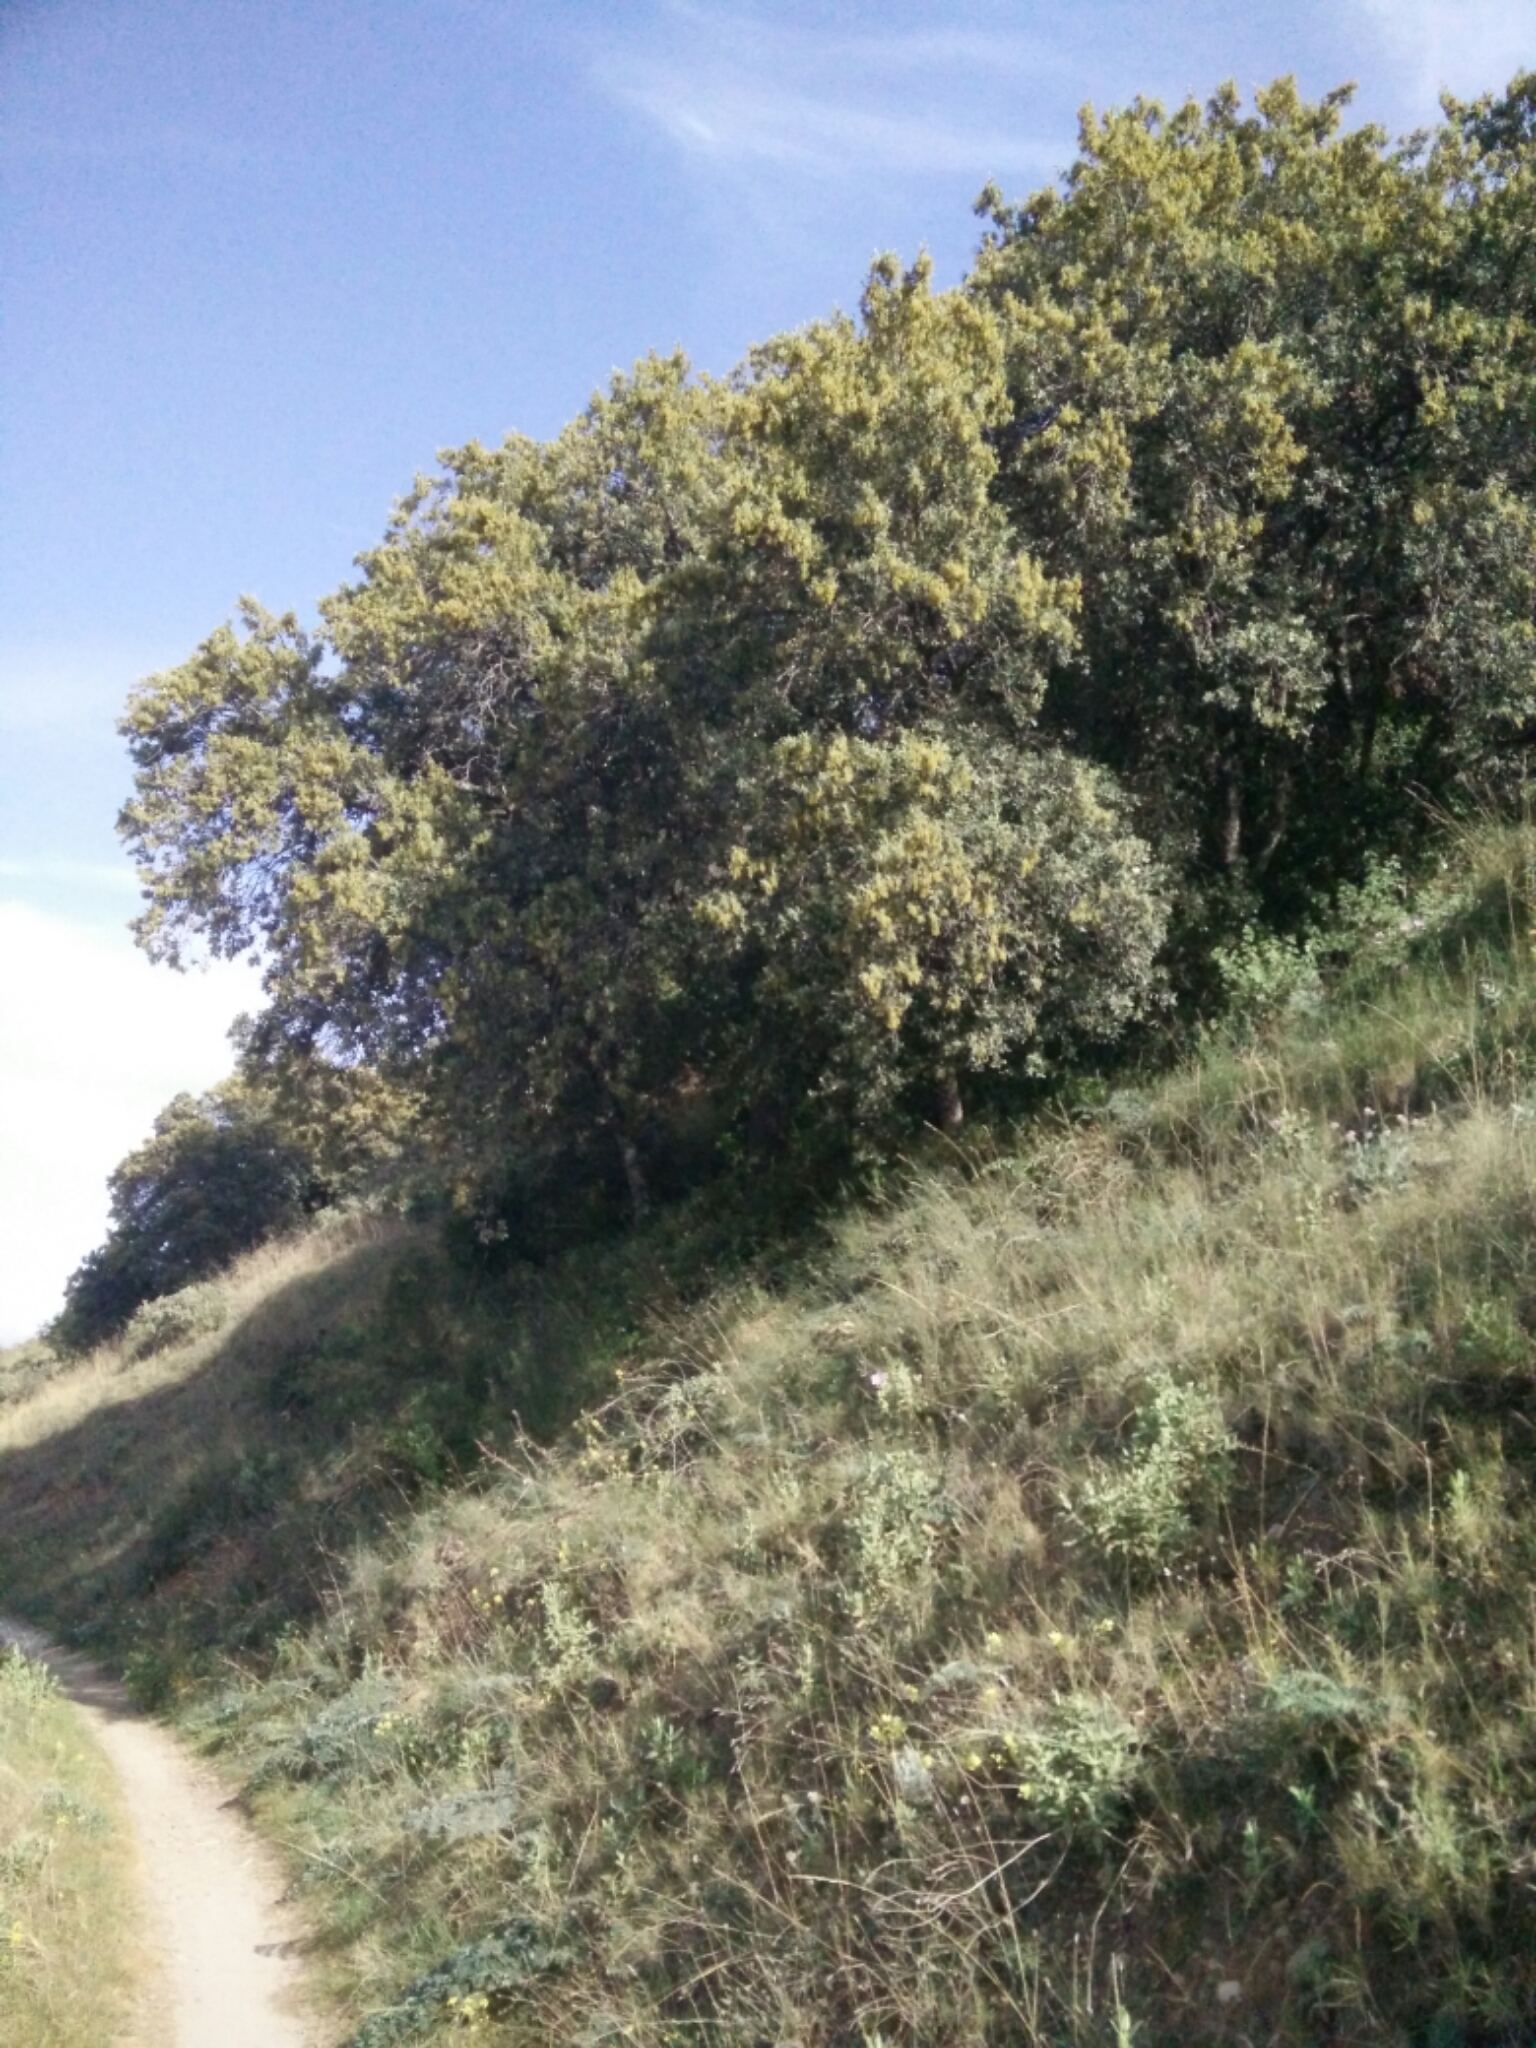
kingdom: Plantae
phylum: Tracheophyta
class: Magnoliopsida
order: Fagales
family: Fagaceae
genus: Quercus
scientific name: Quercus rotundifolia
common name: Holm oak
